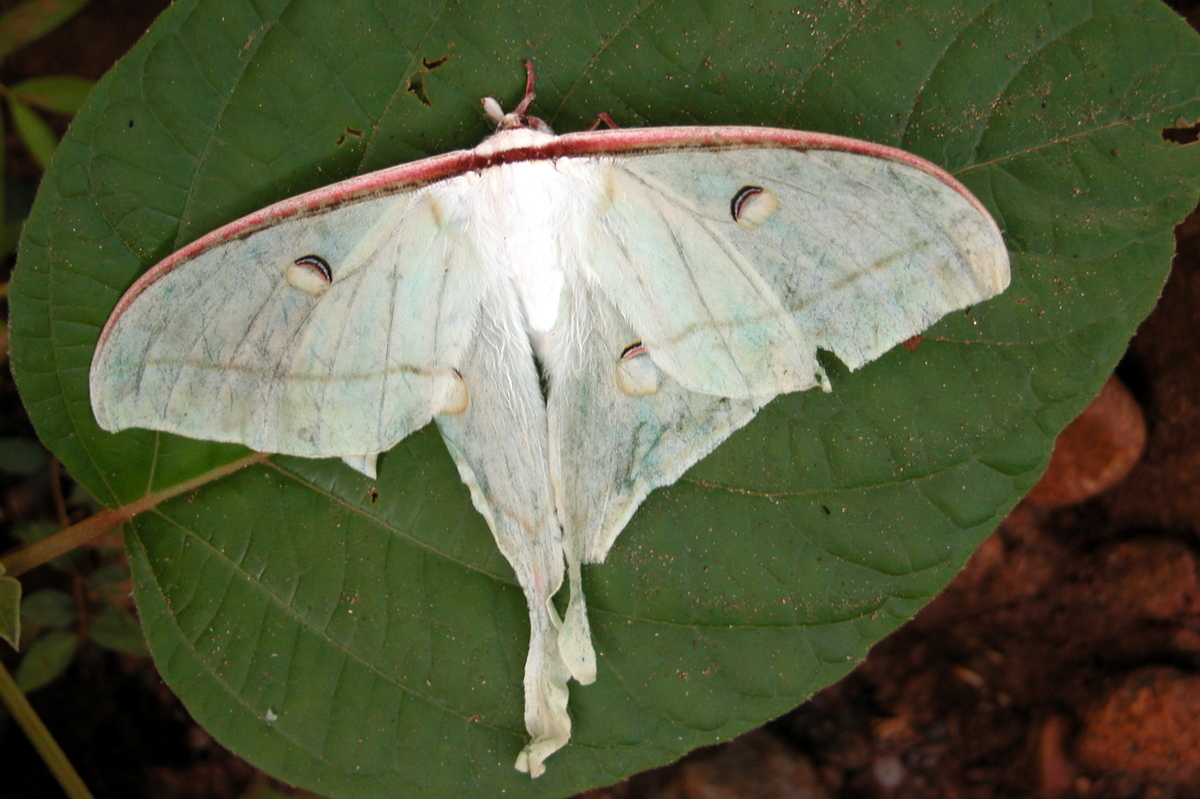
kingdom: Animalia
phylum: Arthropoda
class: Insecta
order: Lepidoptera
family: Saturniidae
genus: Actias
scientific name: Actias selene
